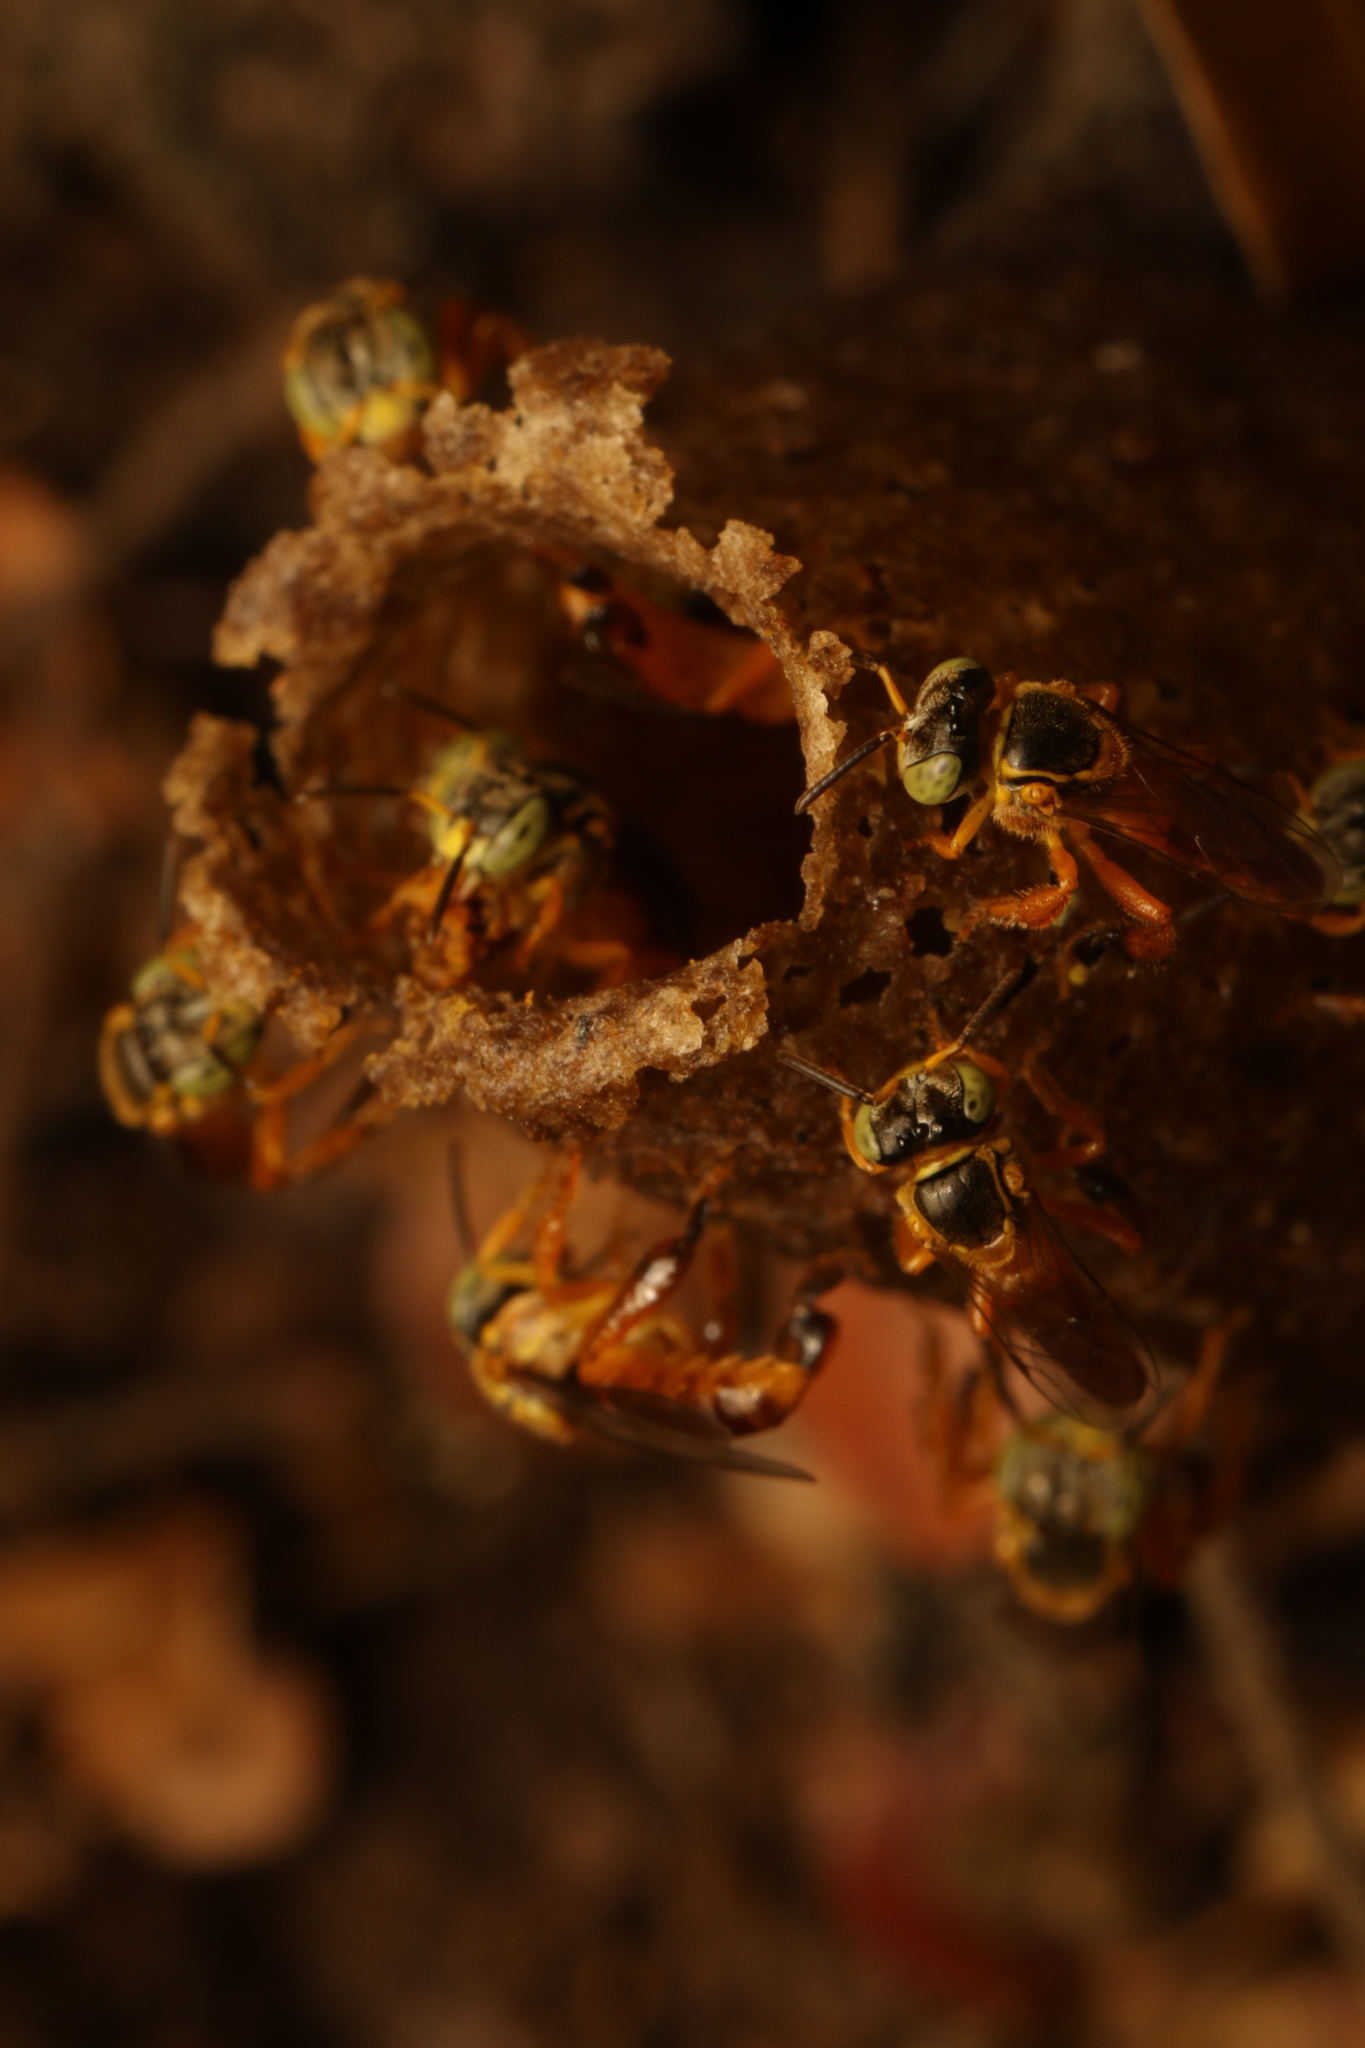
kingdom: Animalia
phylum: Arthropoda
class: Insecta
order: Hymenoptera
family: Apidae
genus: Tetragonisca
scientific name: Tetragonisca angustula
